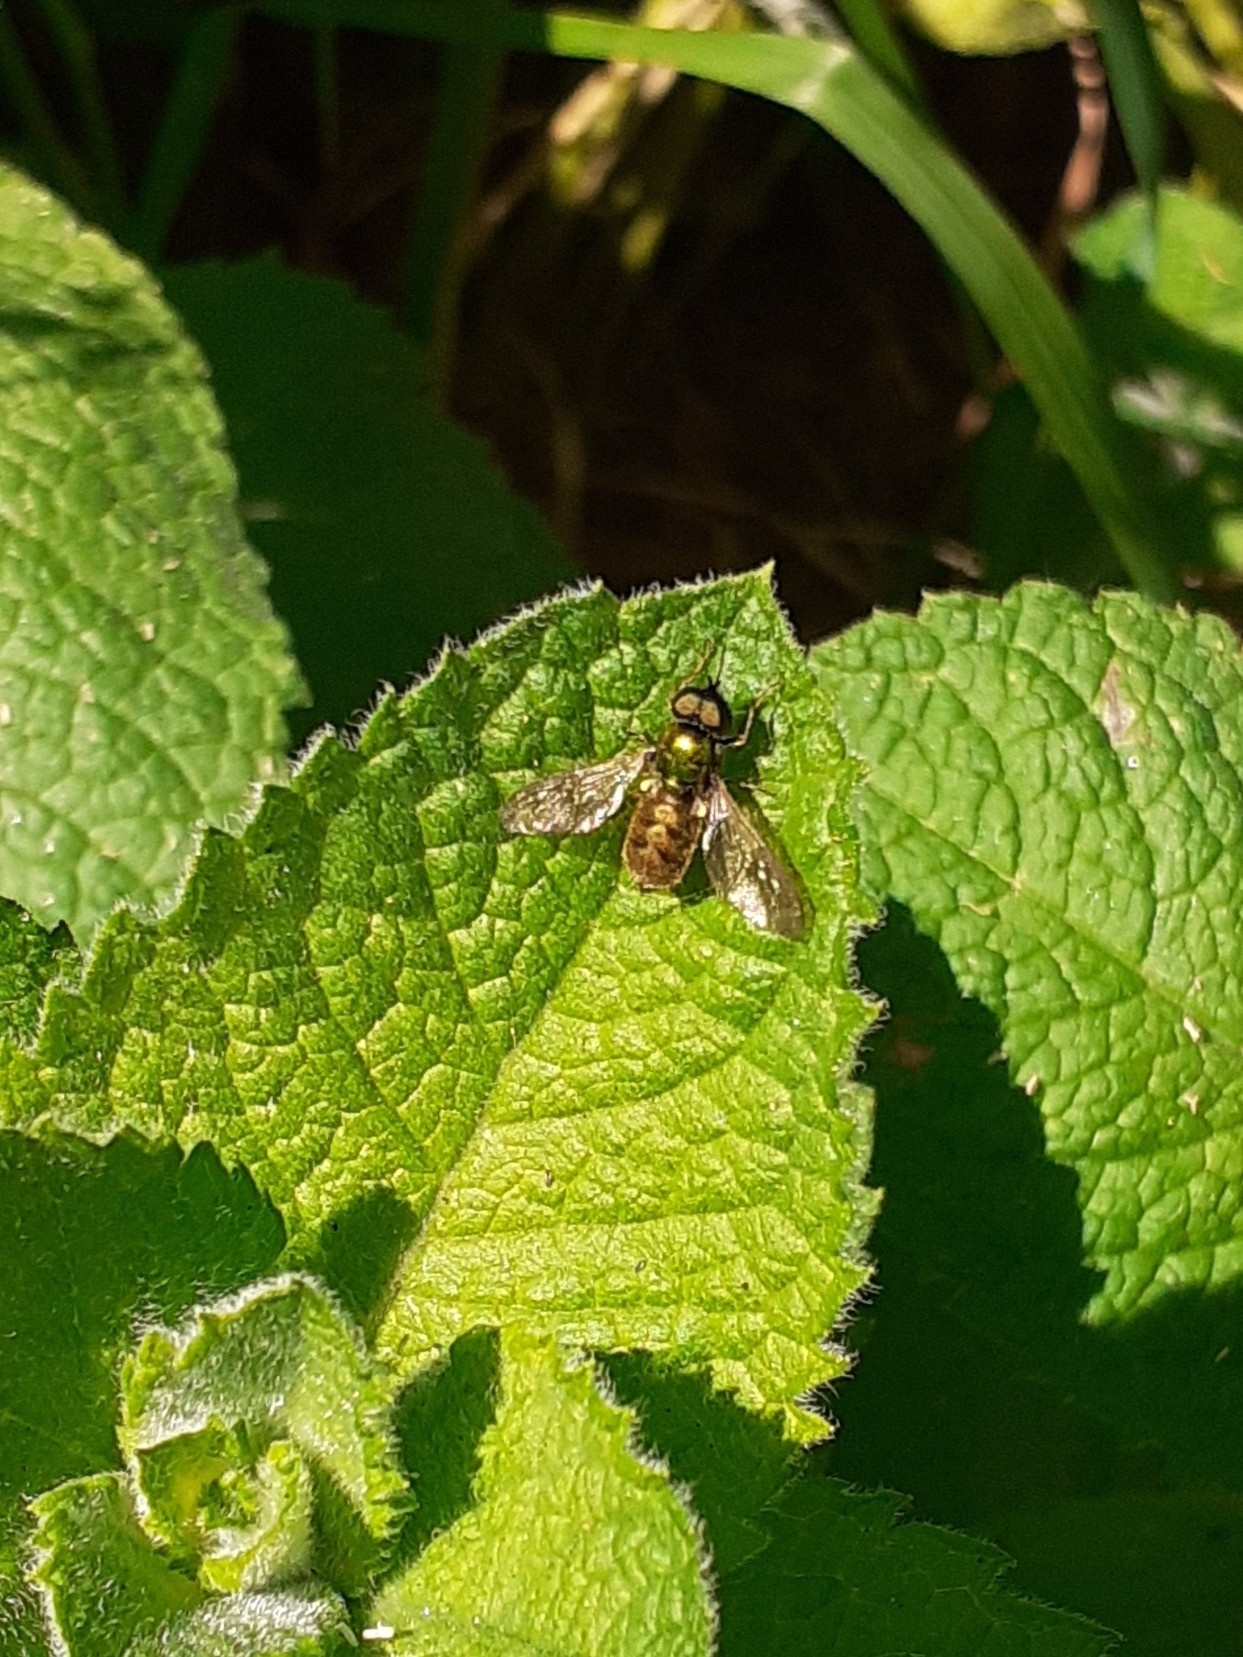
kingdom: Animalia
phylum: Arthropoda
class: Insecta
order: Diptera
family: Stratiomyidae
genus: Chloromyia
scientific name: Chloromyia formosa
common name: Soldier fly
